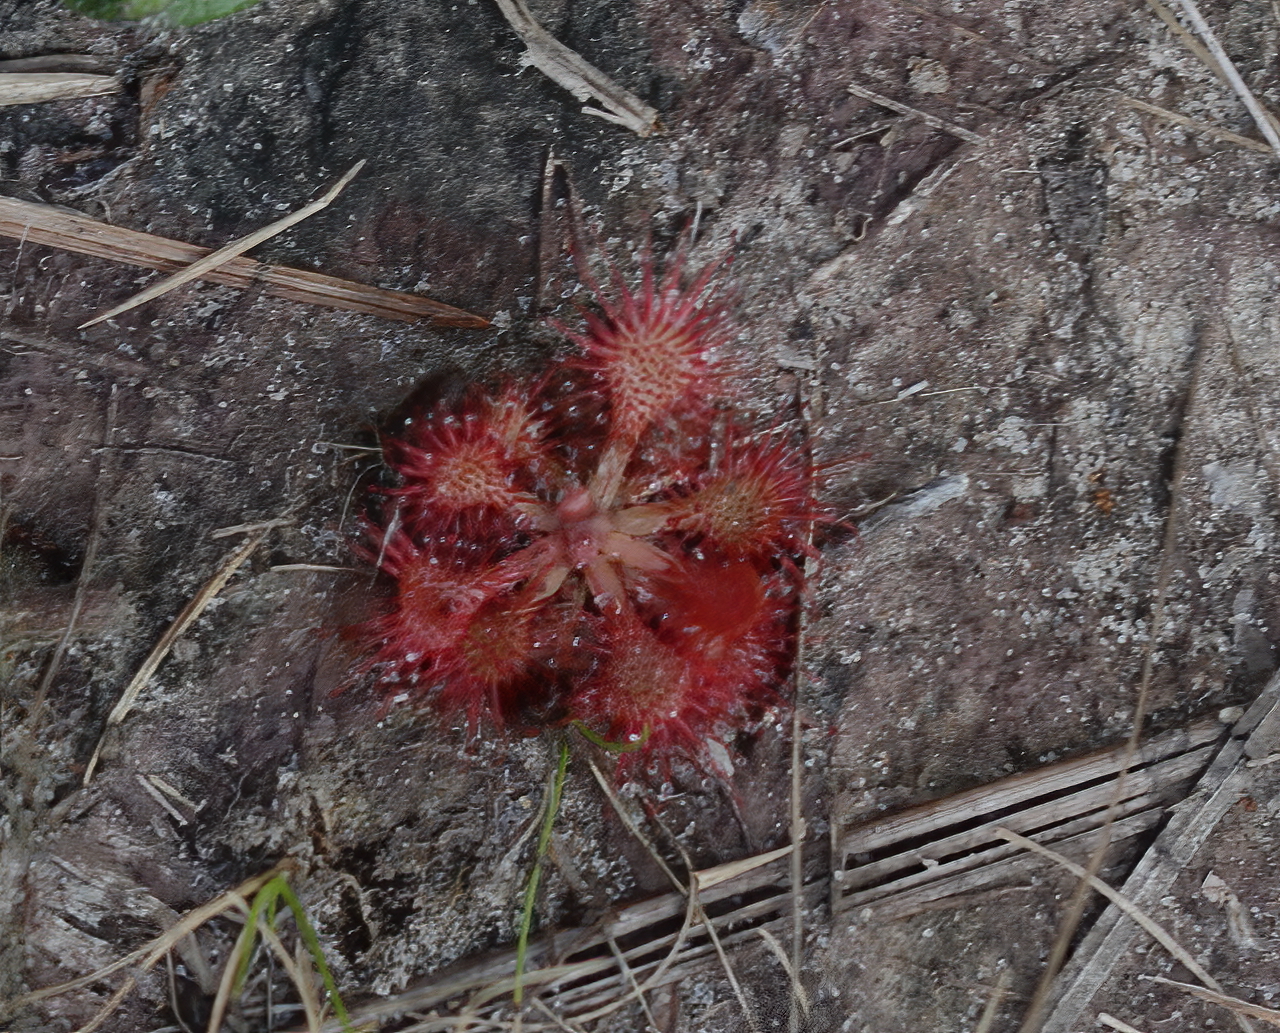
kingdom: Plantae
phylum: Tracheophyta
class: Magnoliopsida
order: Caryophyllales
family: Droseraceae
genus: Drosera
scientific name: Drosera capillaris
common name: Pink sundew
